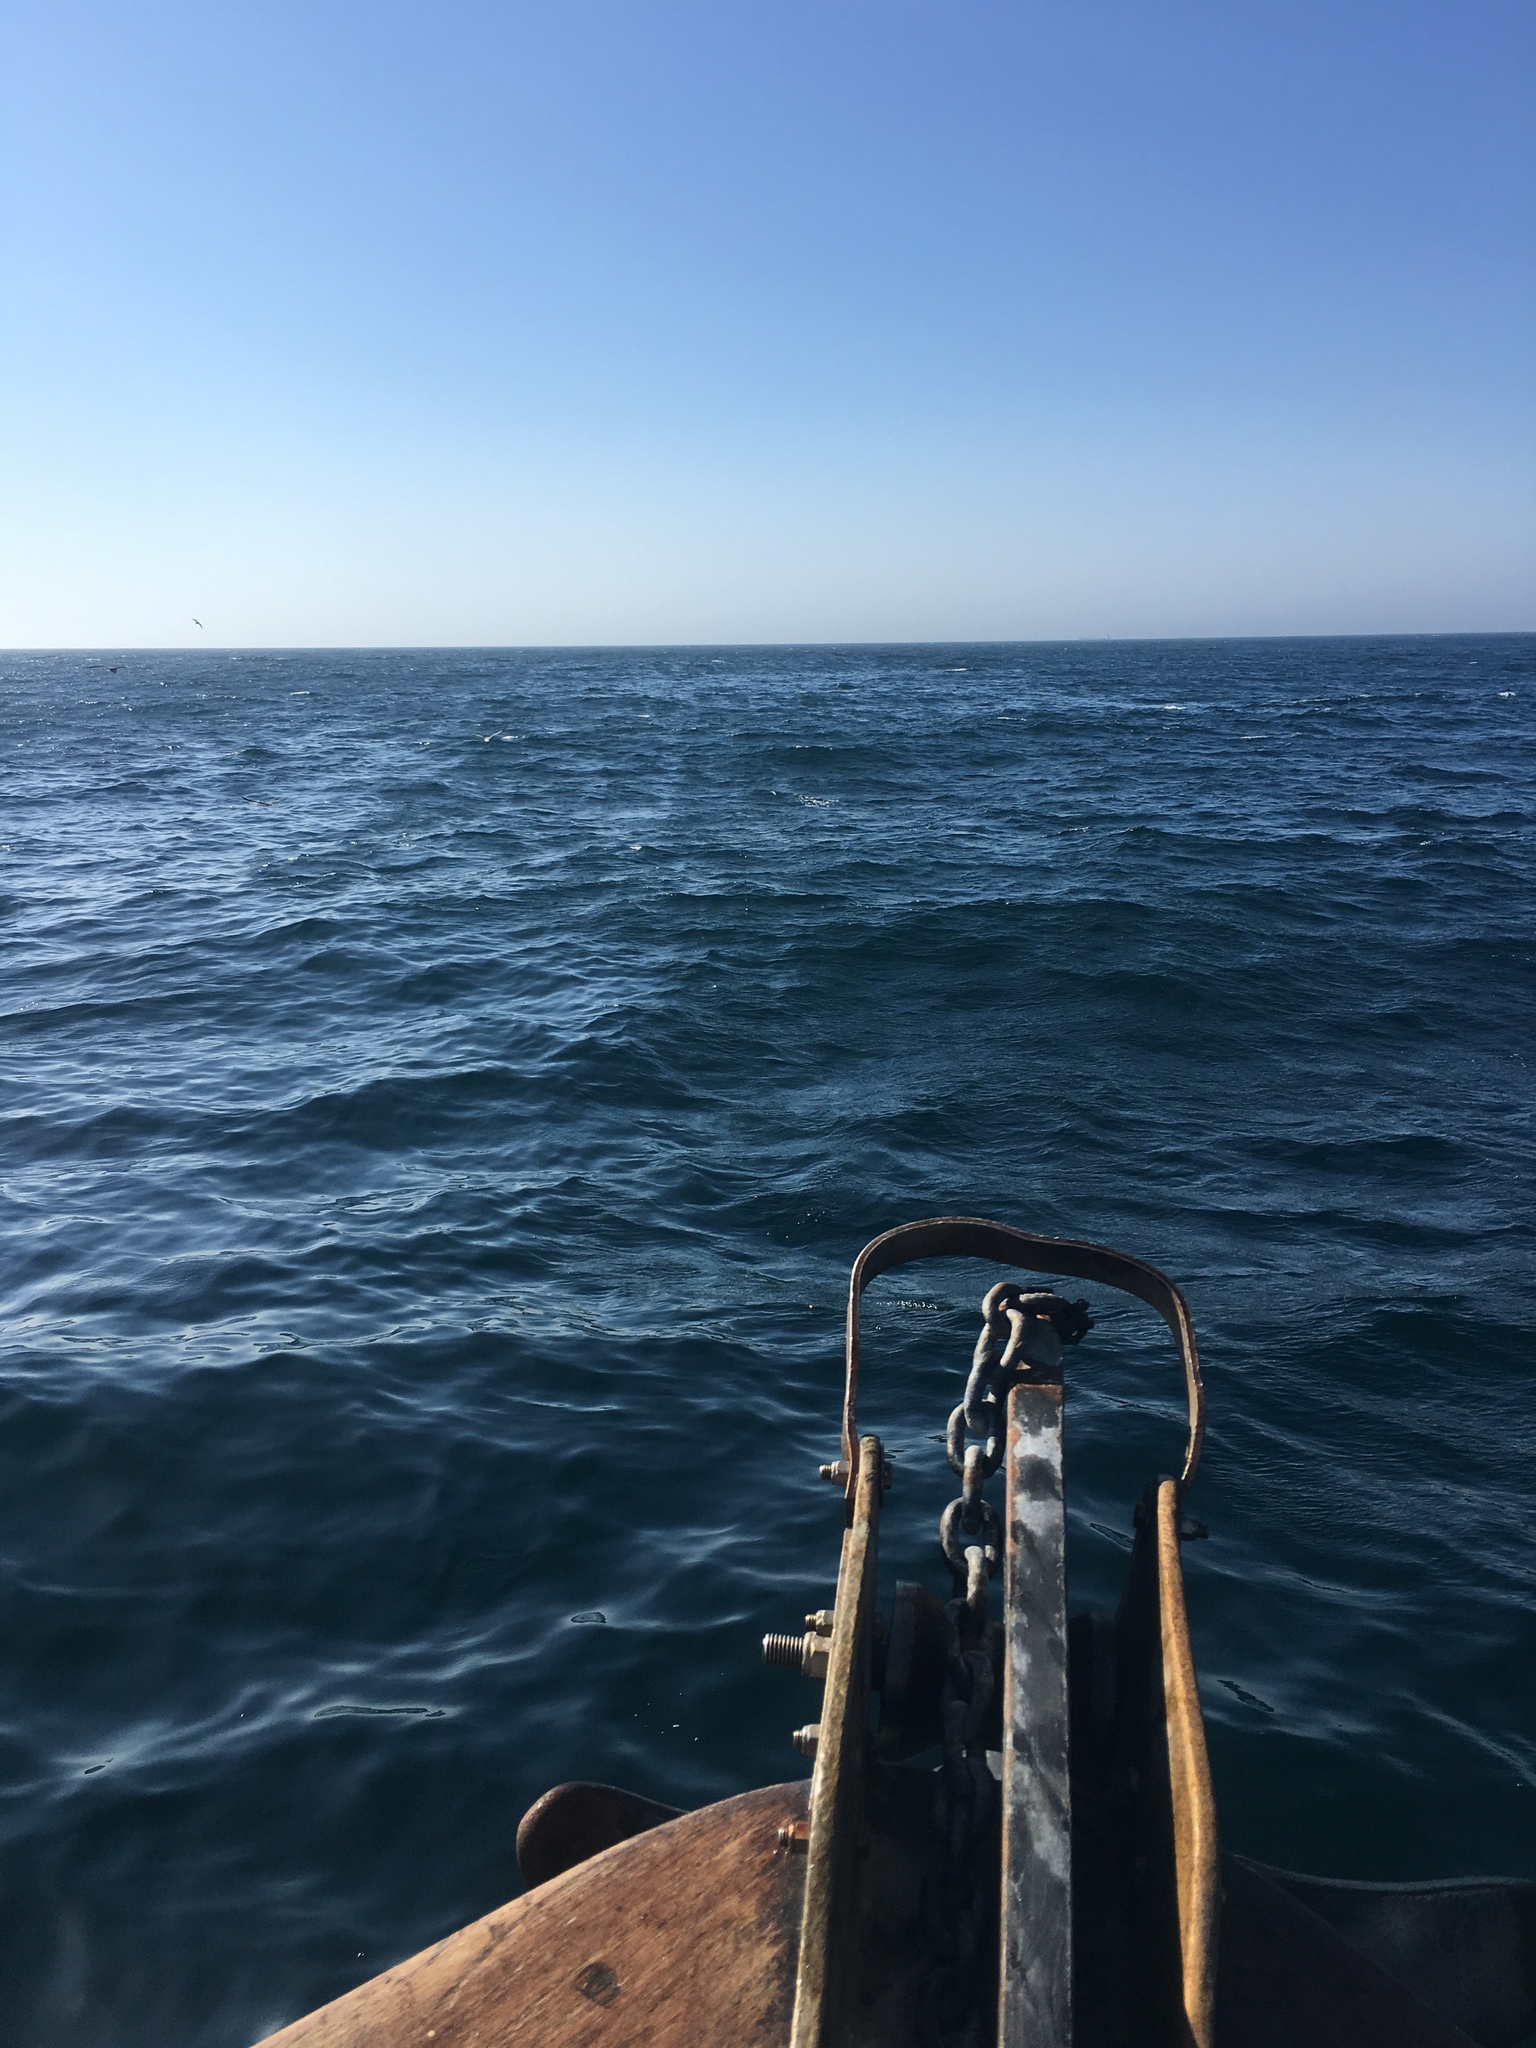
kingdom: Animalia
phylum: Chordata
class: Mammalia
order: Cetacea
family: Delphinidae
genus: Orcinus
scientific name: Orcinus orca
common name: Killer whale
